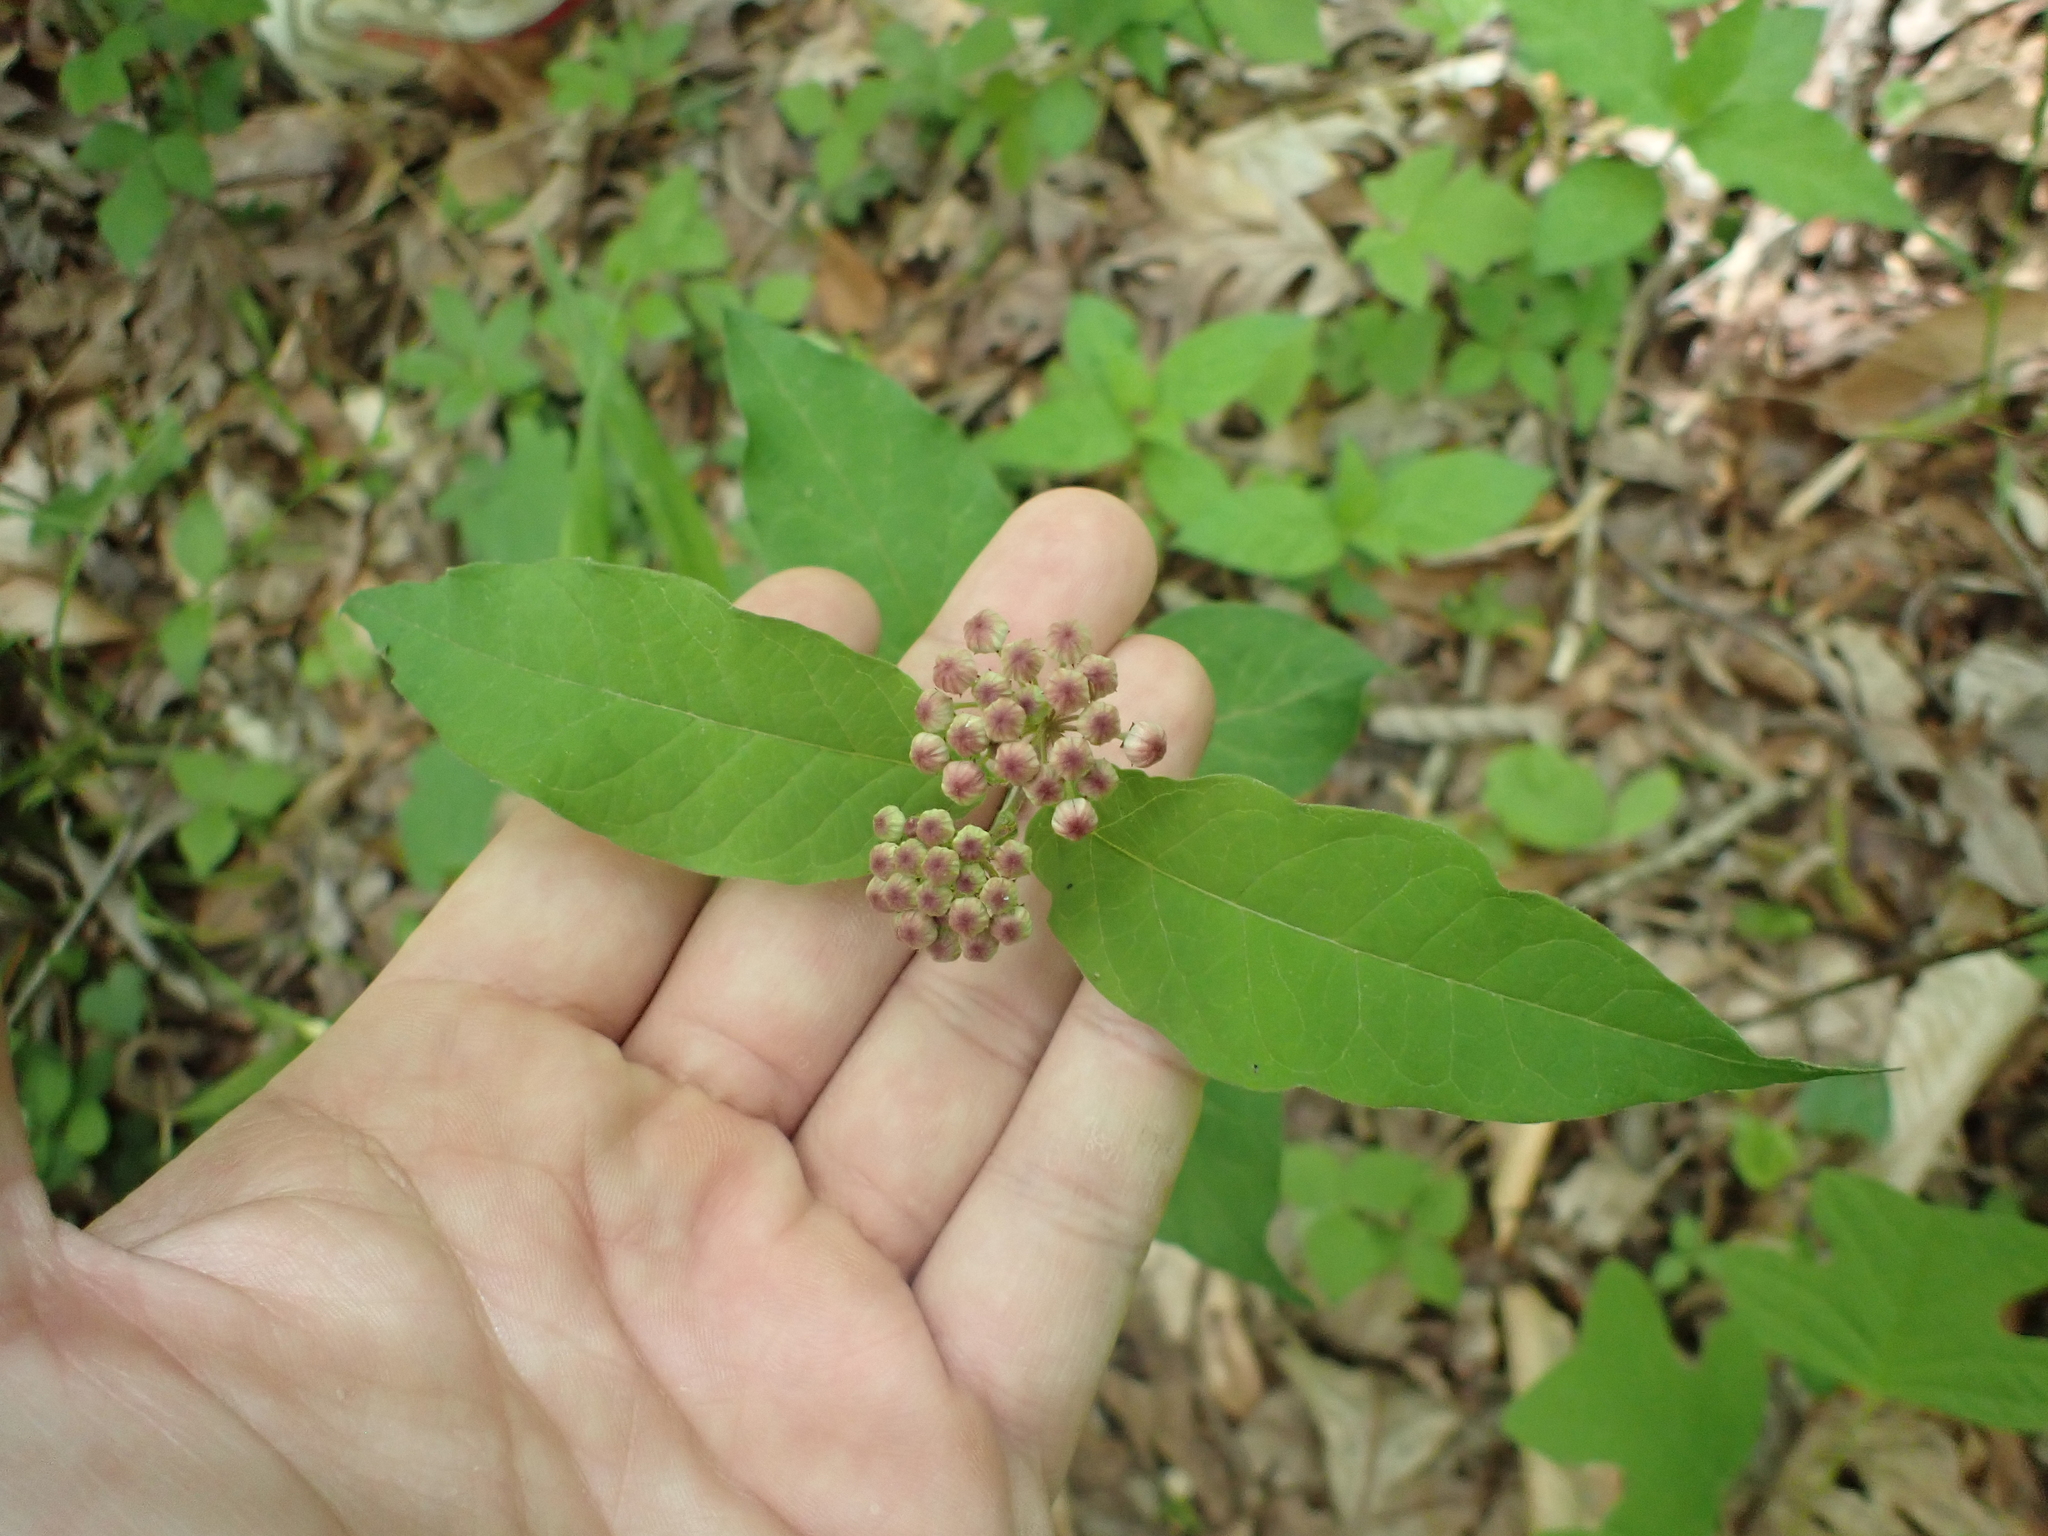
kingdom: Plantae
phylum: Tracheophyta
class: Magnoliopsida
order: Gentianales
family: Apocynaceae
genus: Asclepias
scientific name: Asclepias quadrifolia
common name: Whorled milkweed
